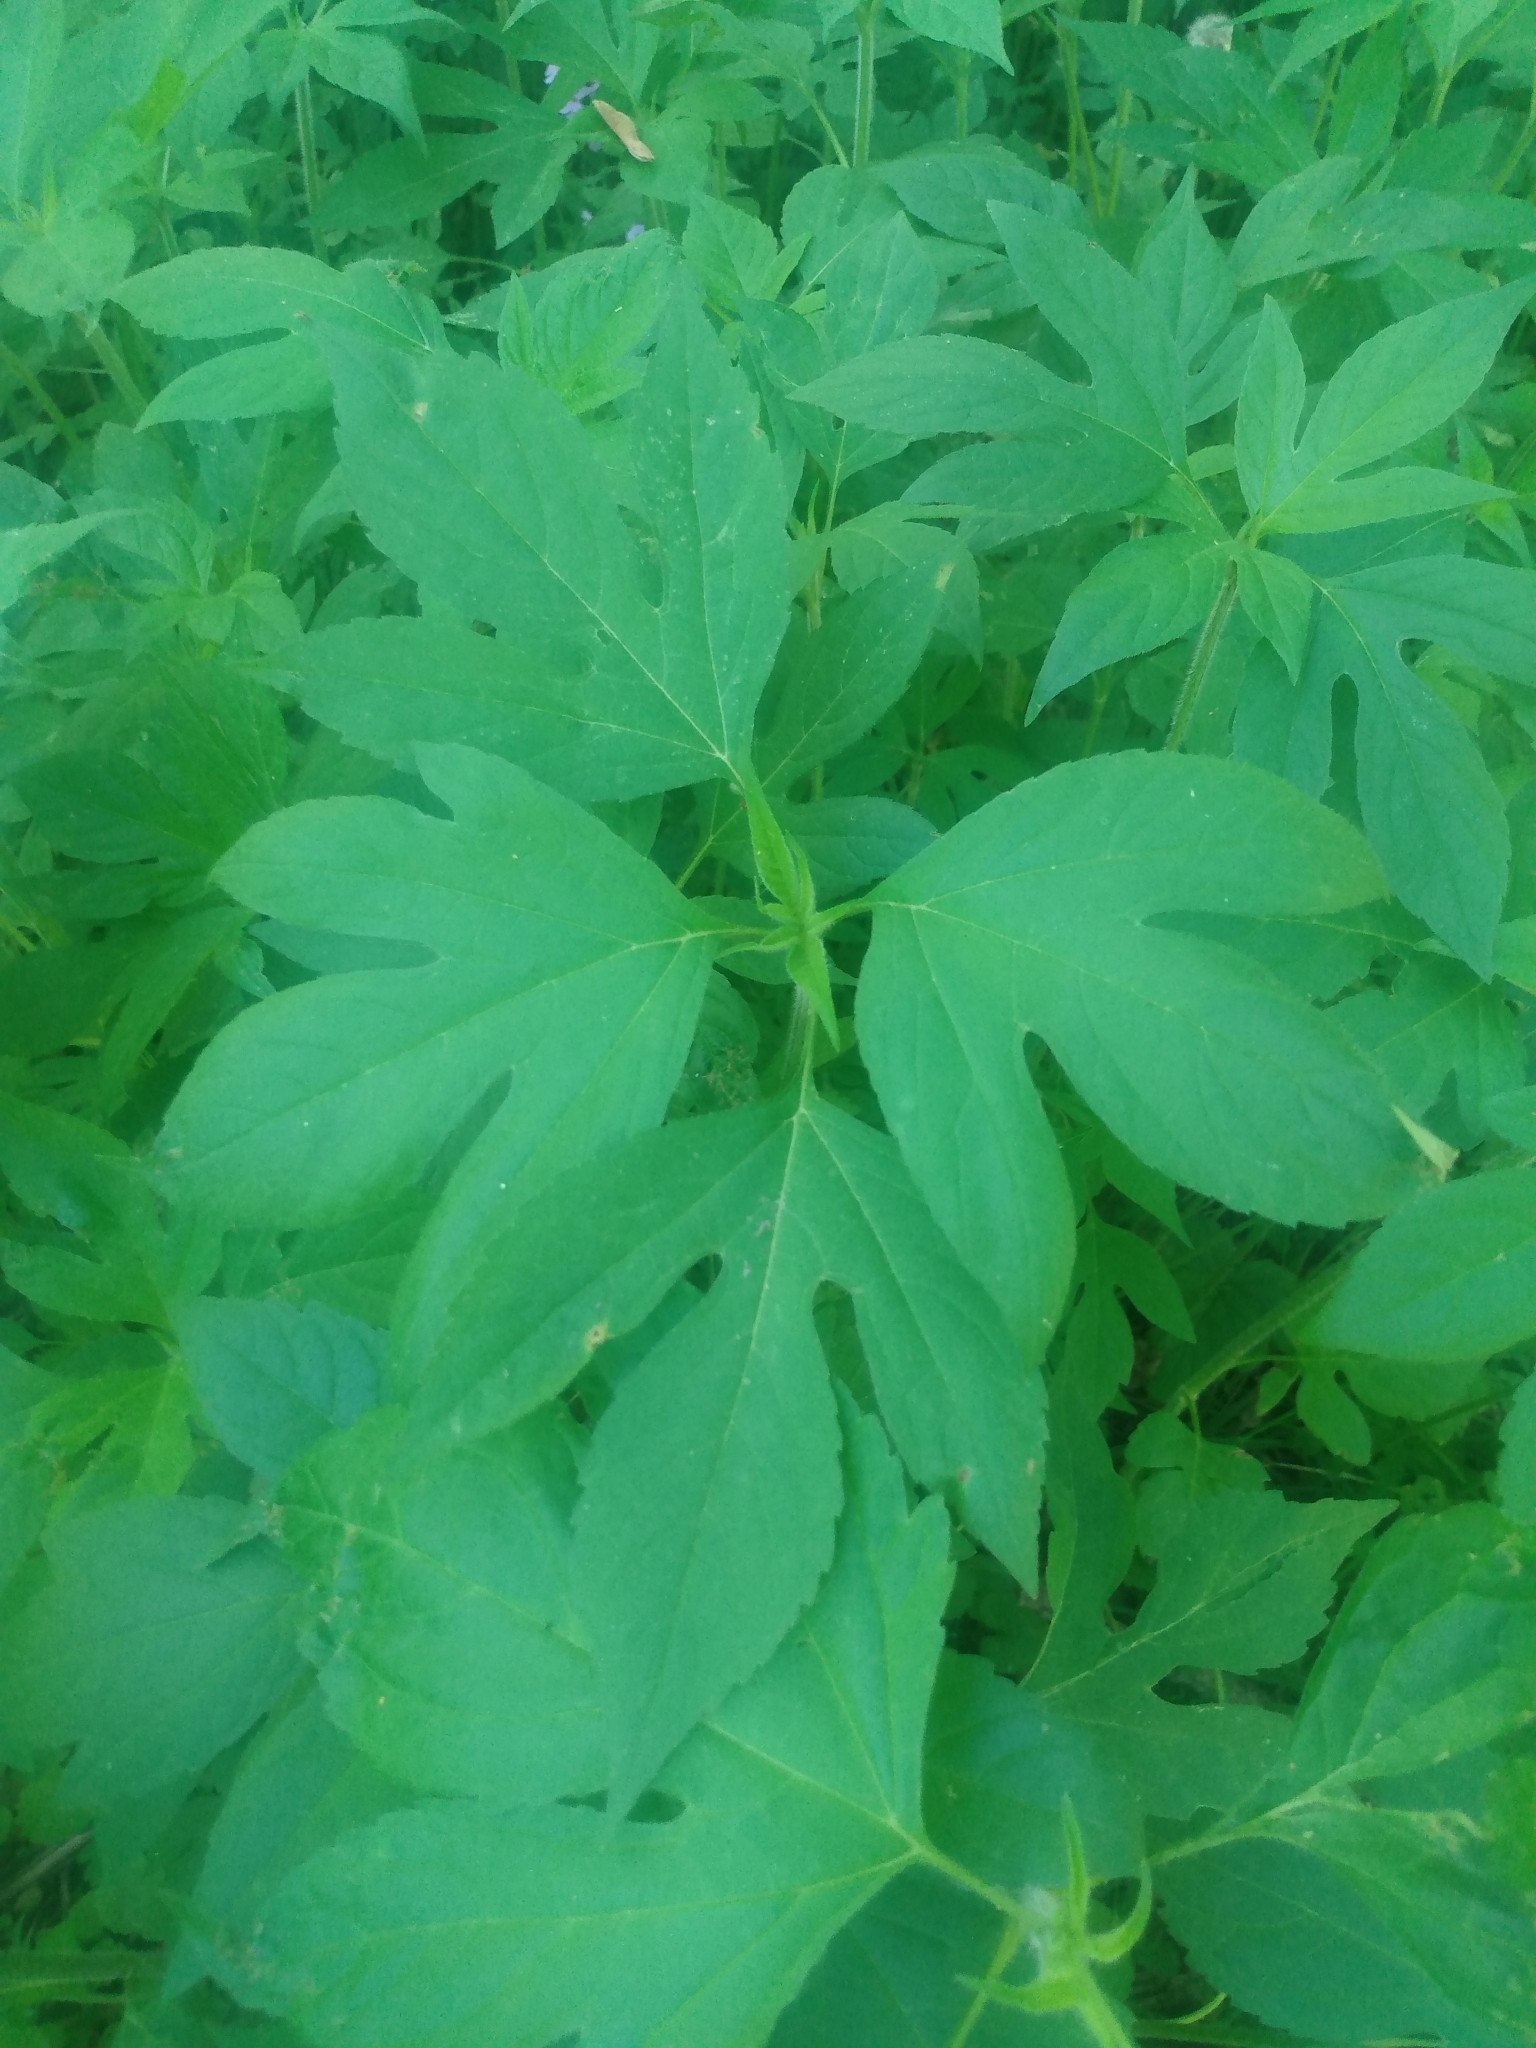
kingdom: Plantae
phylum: Tracheophyta
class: Magnoliopsida
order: Asterales
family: Asteraceae
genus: Ambrosia
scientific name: Ambrosia trifida
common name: Giant ragweed
